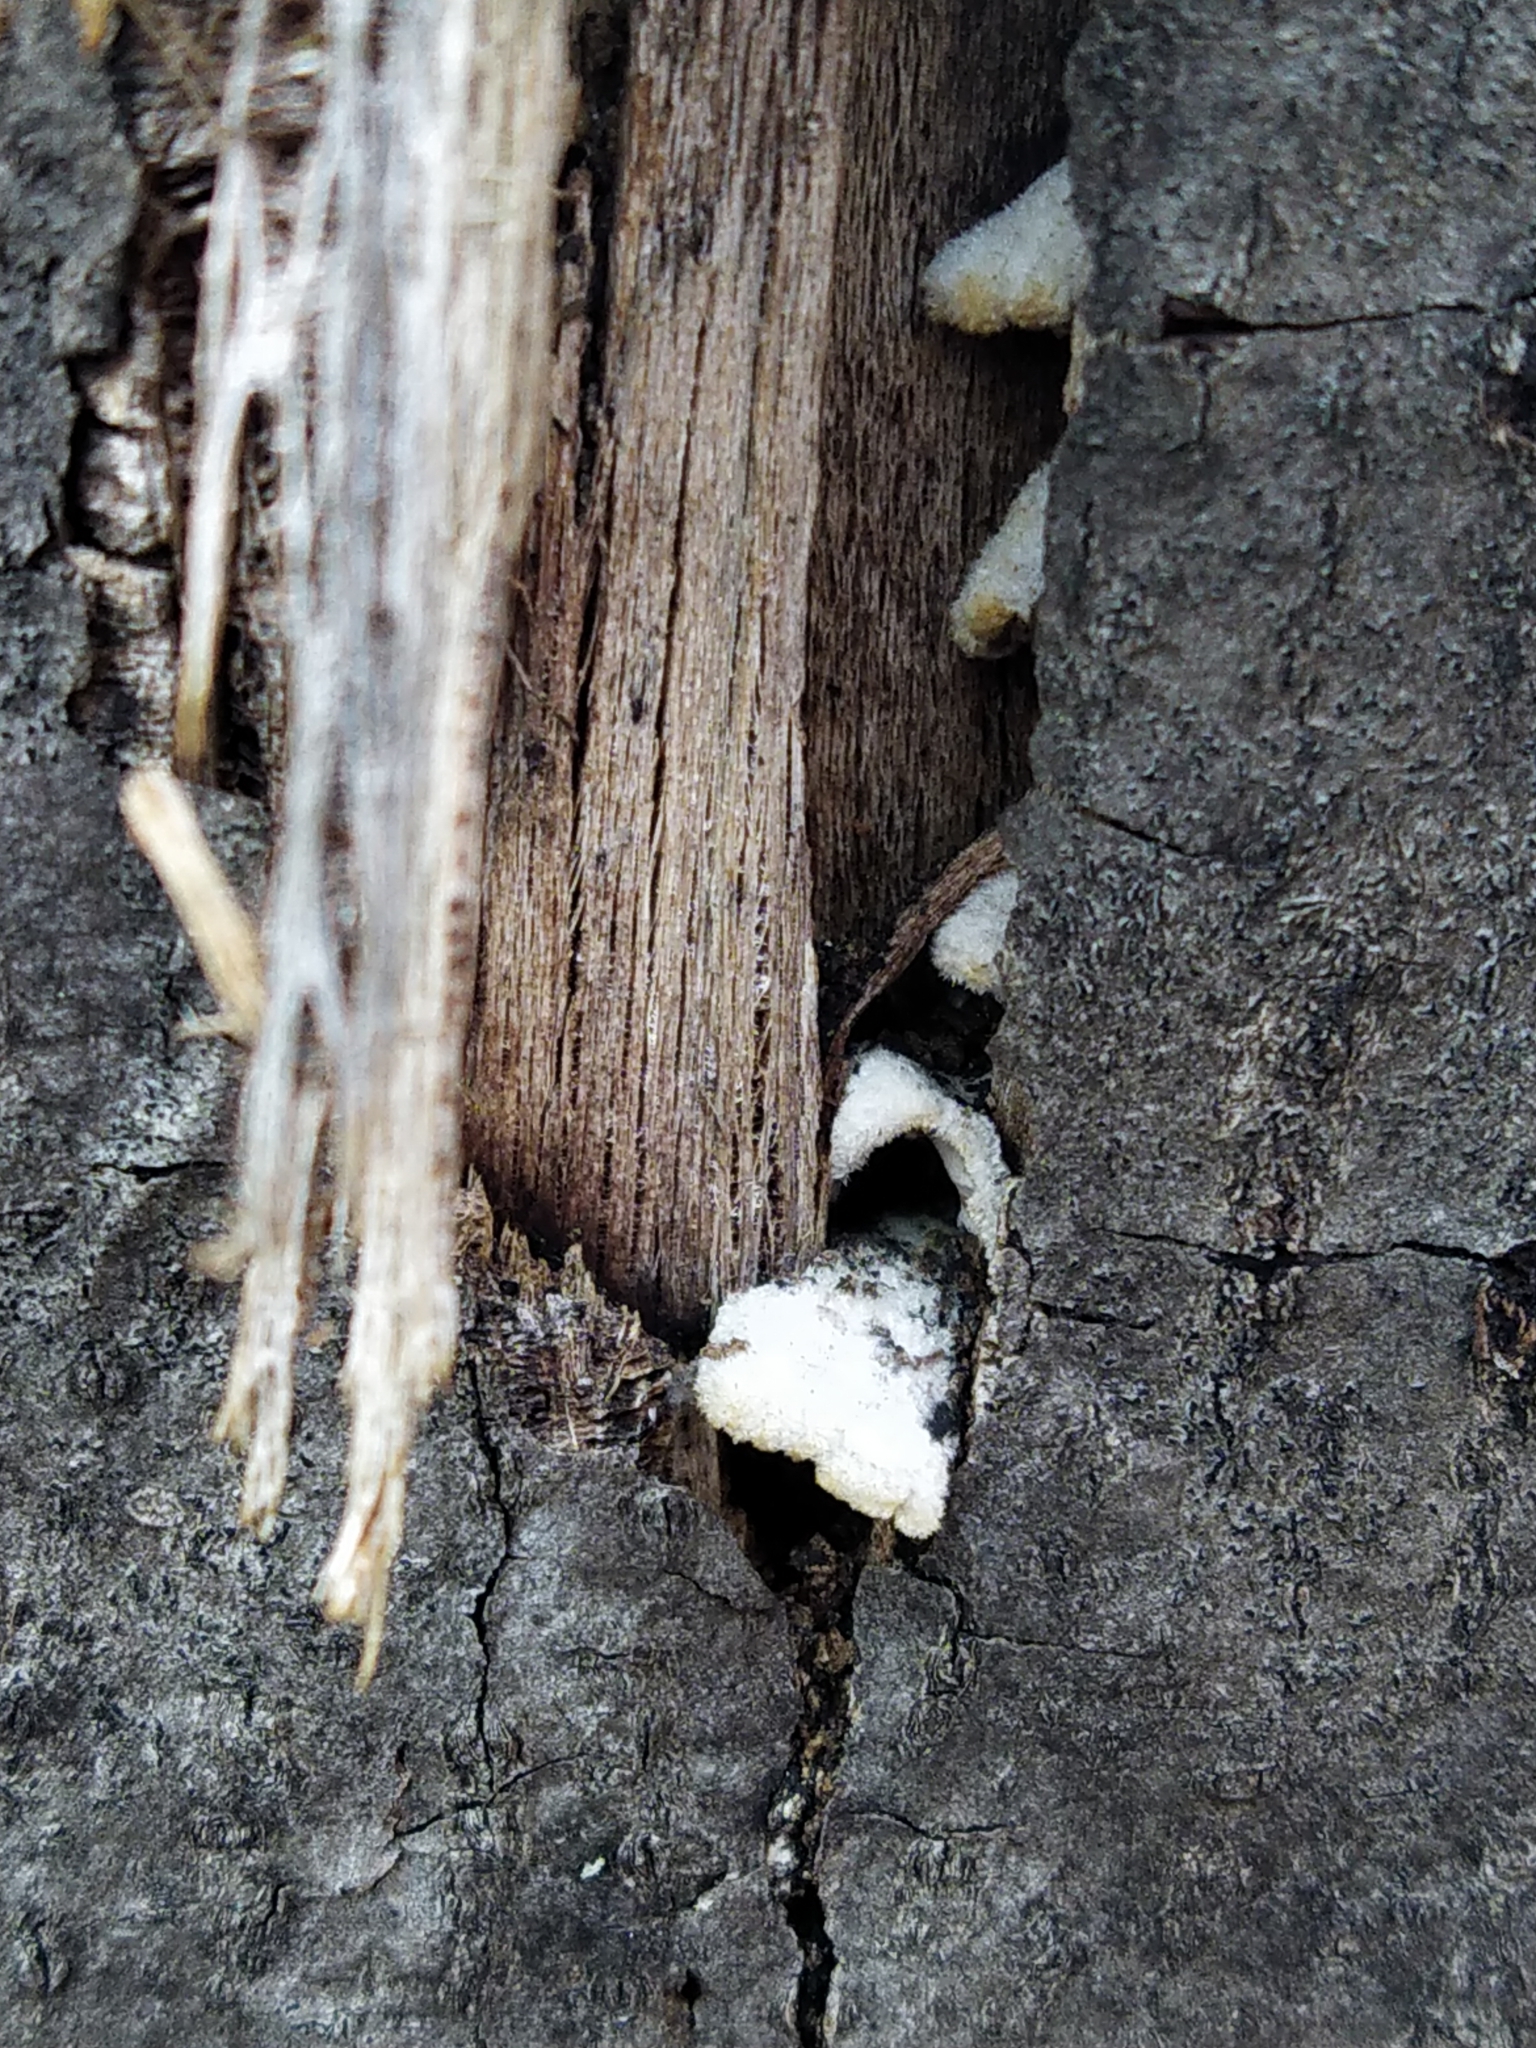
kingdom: Fungi
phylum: Basidiomycota
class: Agaricomycetes
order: Agaricales
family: Schizophyllaceae
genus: Schizophyllum
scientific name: Schizophyllum commune
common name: Common porecrust
